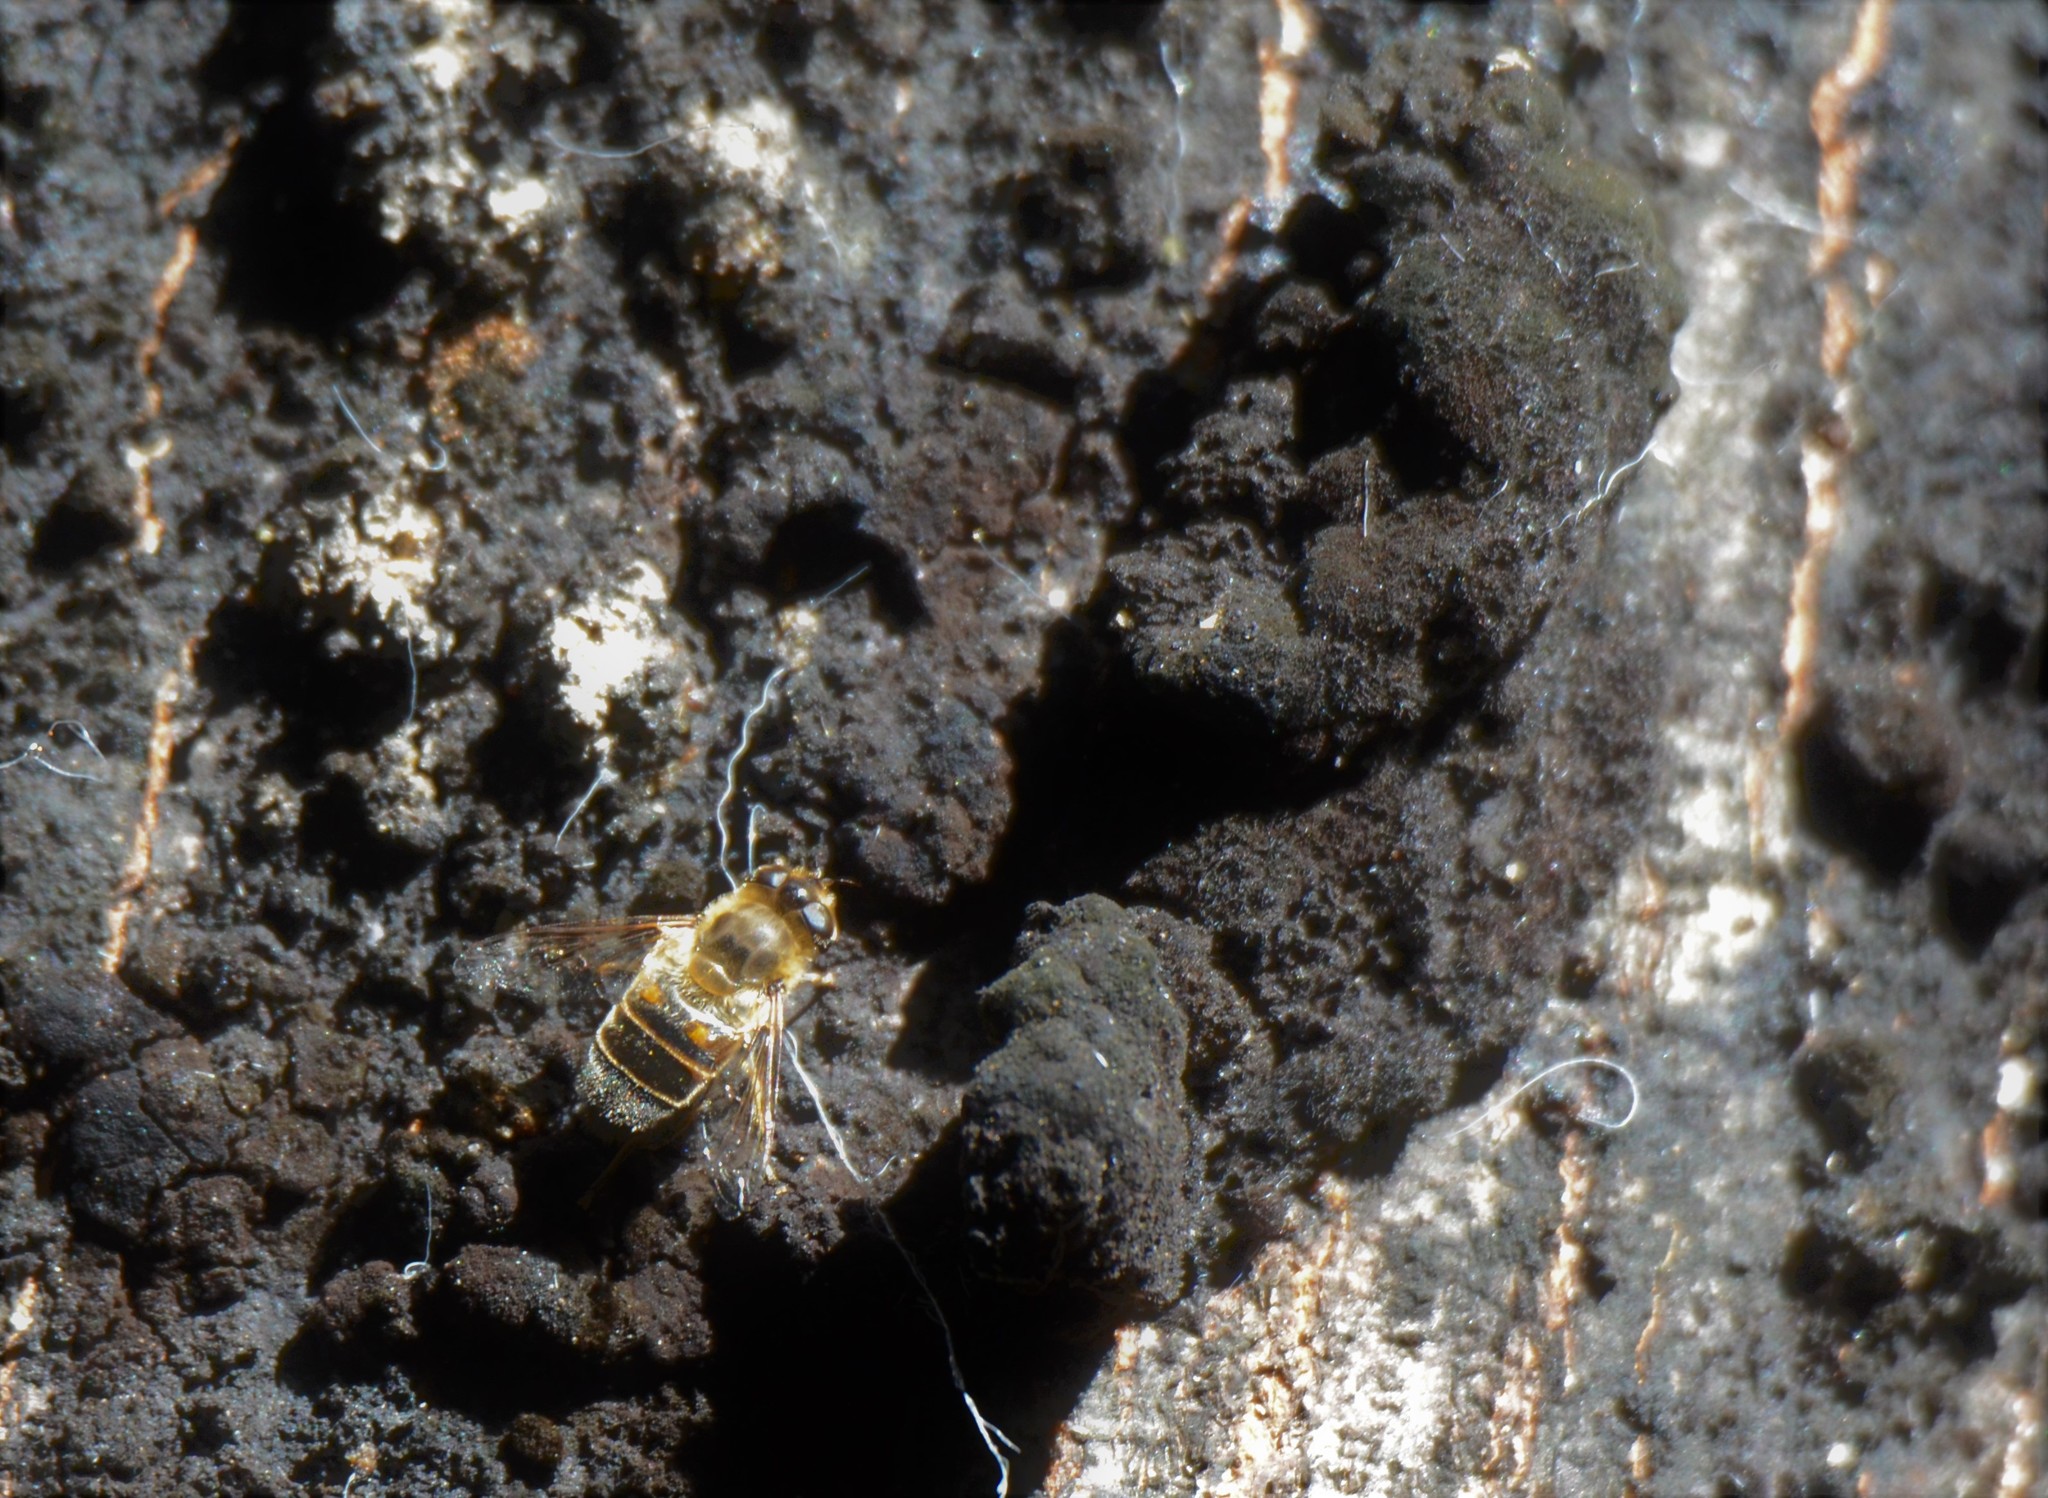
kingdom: Animalia
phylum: Arthropoda
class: Insecta
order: Diptera
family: Syrphidae
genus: Eristalis
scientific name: Eristalis tenax
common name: Drone fly
